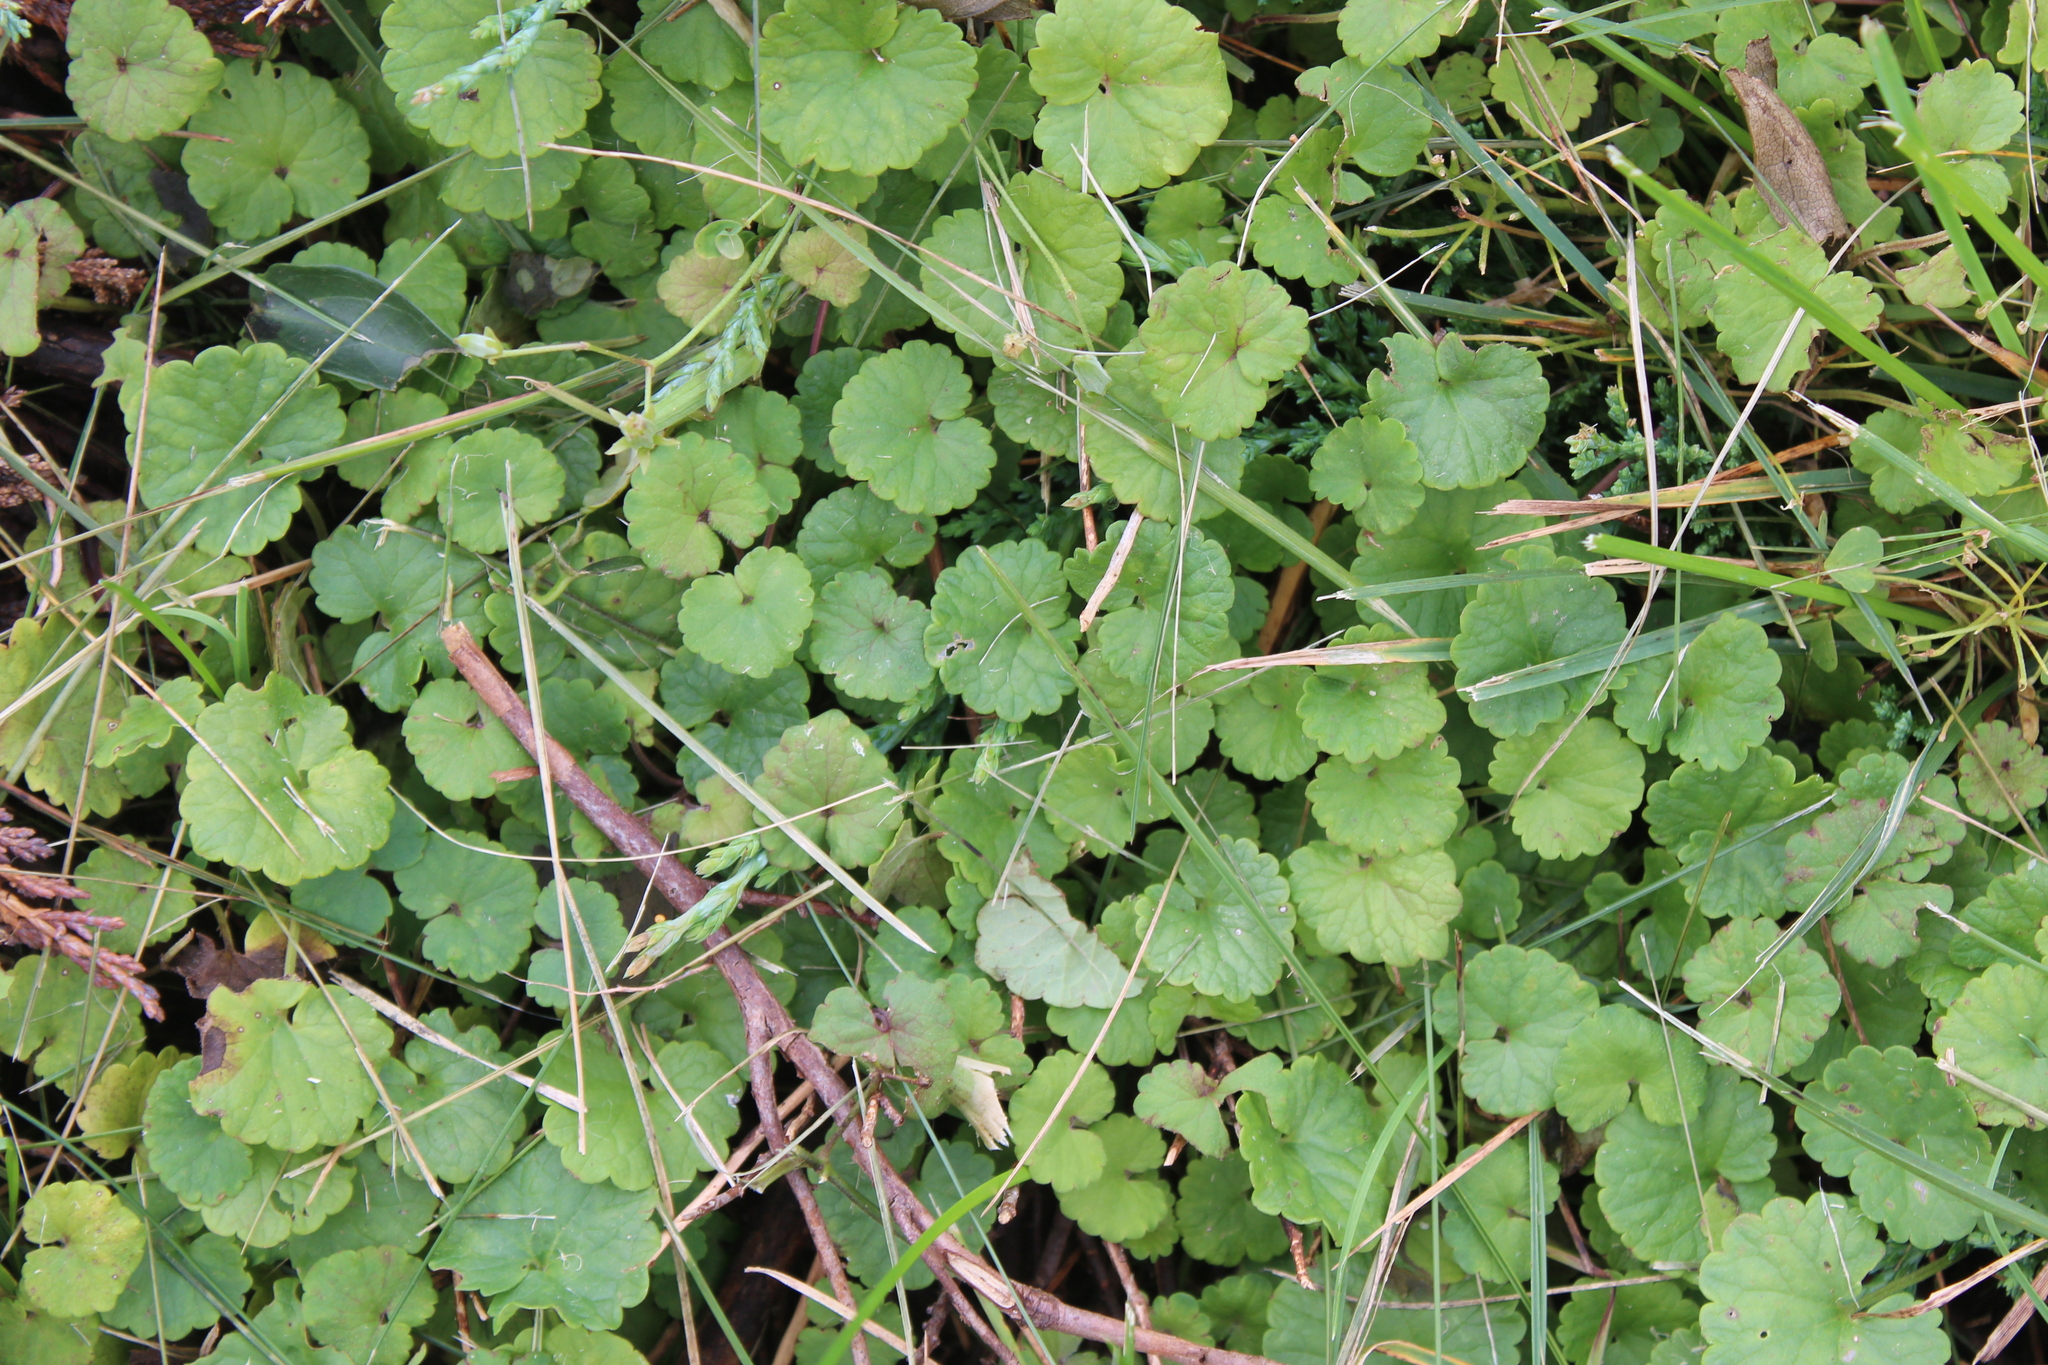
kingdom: Plantae
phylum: Tracheophyta
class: Magnoliopsida
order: Lamiales
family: Lamiaceae
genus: Glechoma
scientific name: Glechoma hederacea
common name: Ground ivy
